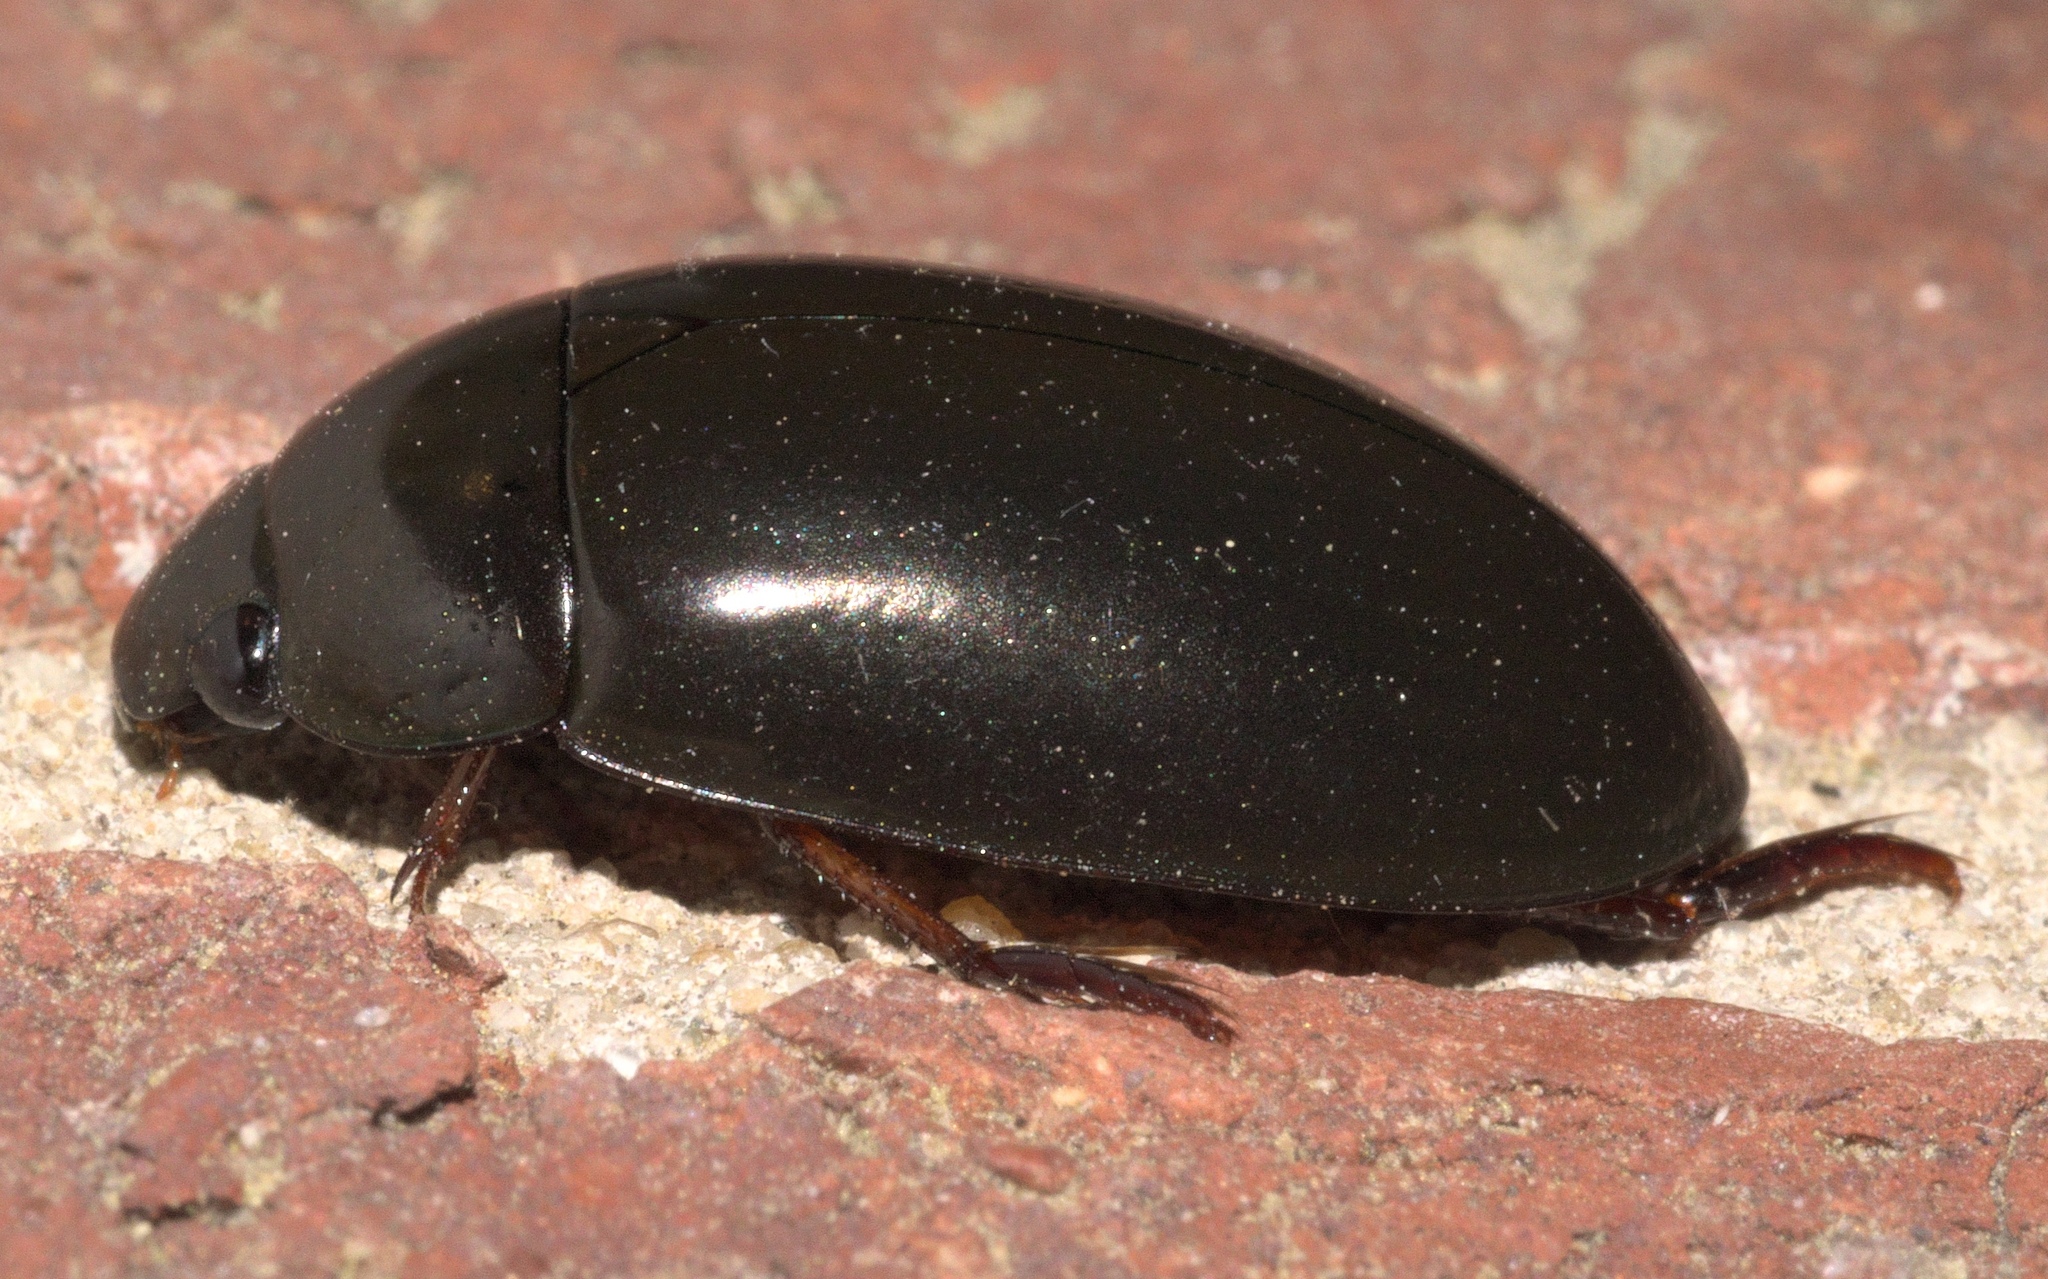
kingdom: Animalia
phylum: Arthropoda
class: Insecta
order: Coleoptera
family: Hydrophilidae
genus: Hydrochara
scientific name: Hydrochara
